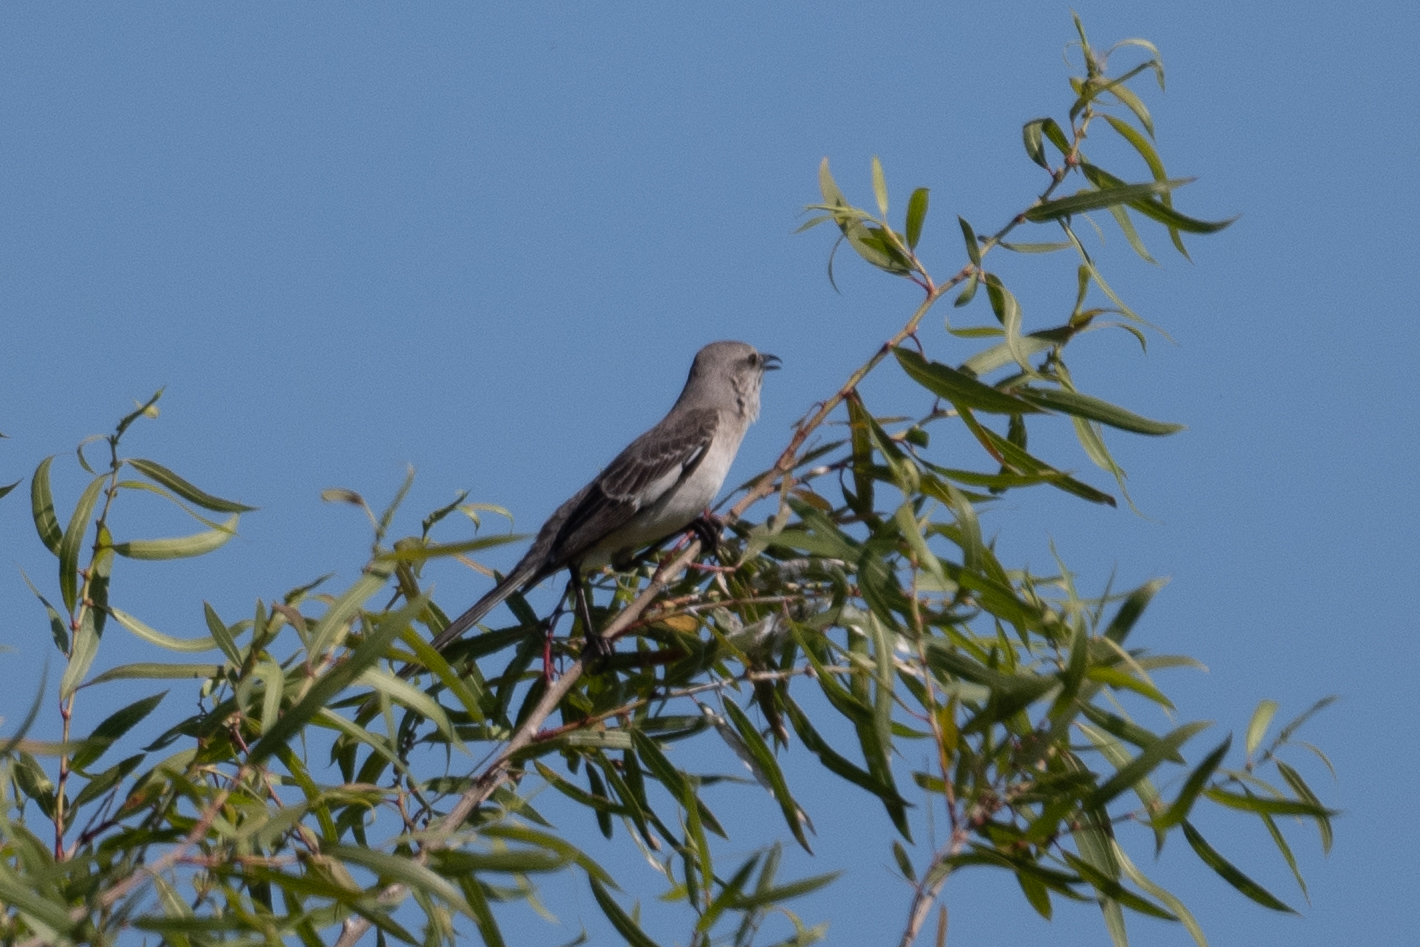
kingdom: Animalia
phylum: Chordata
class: Aves
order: Passeriformes
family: Mimidae
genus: Mimus
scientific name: Mimus polyglottos
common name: Northern mockingbird
